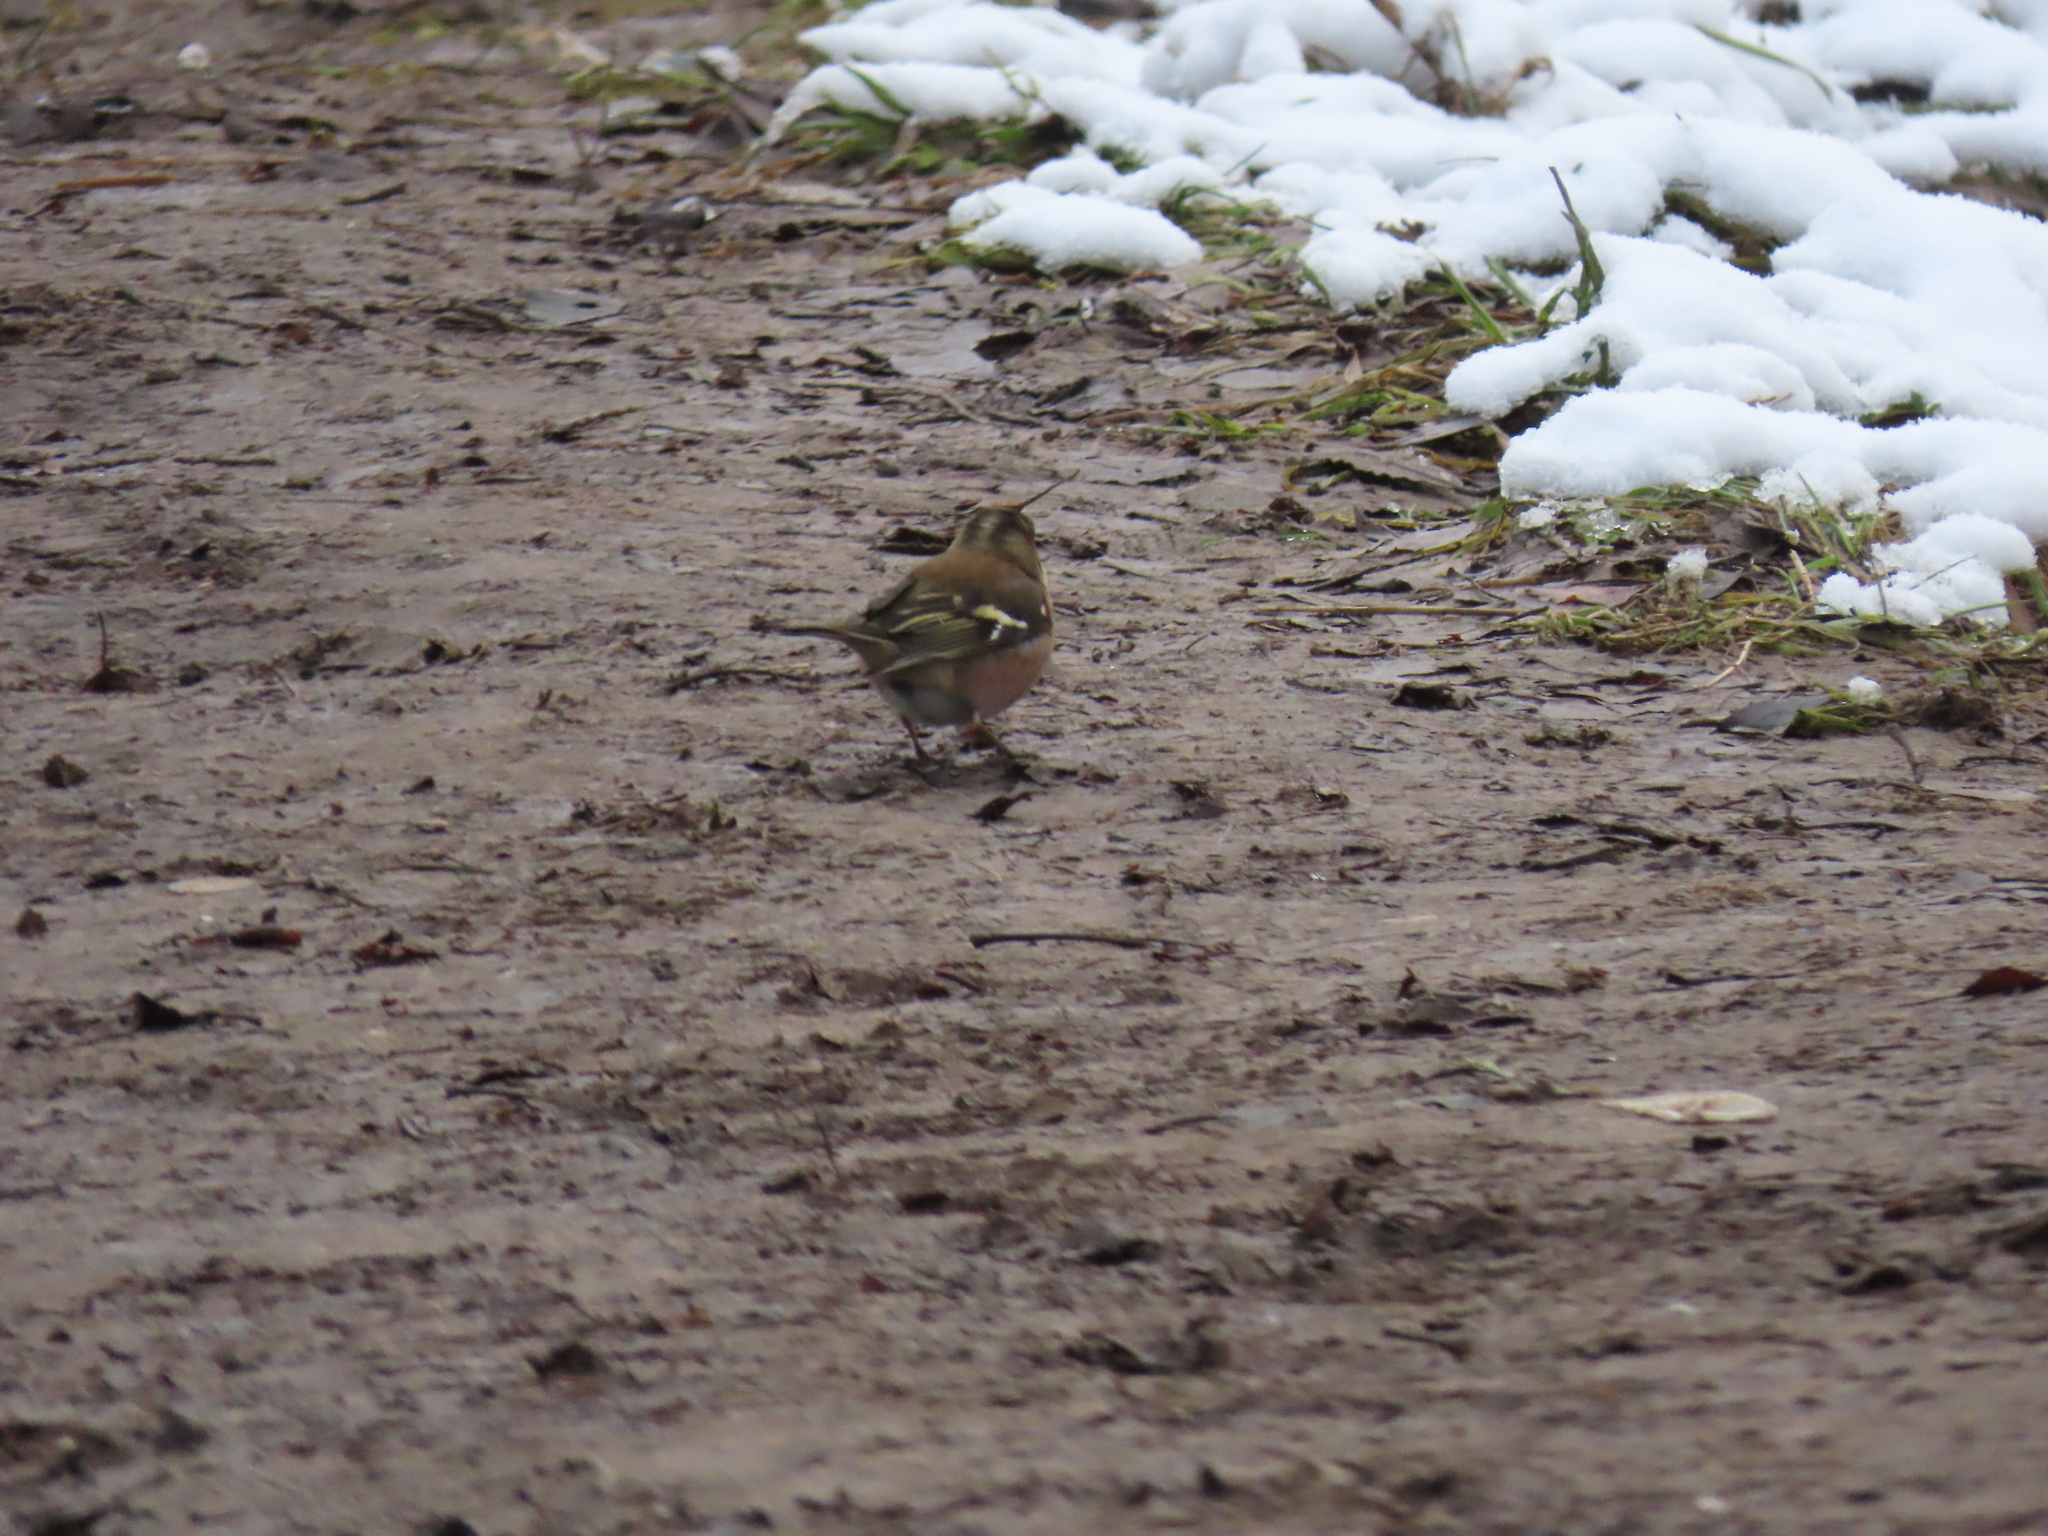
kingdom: Animalia
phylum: Chordata
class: Aves
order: Passeriformes
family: Fringillidae
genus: Fringilla
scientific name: Fringilla coelebs
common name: Common chaffinch
